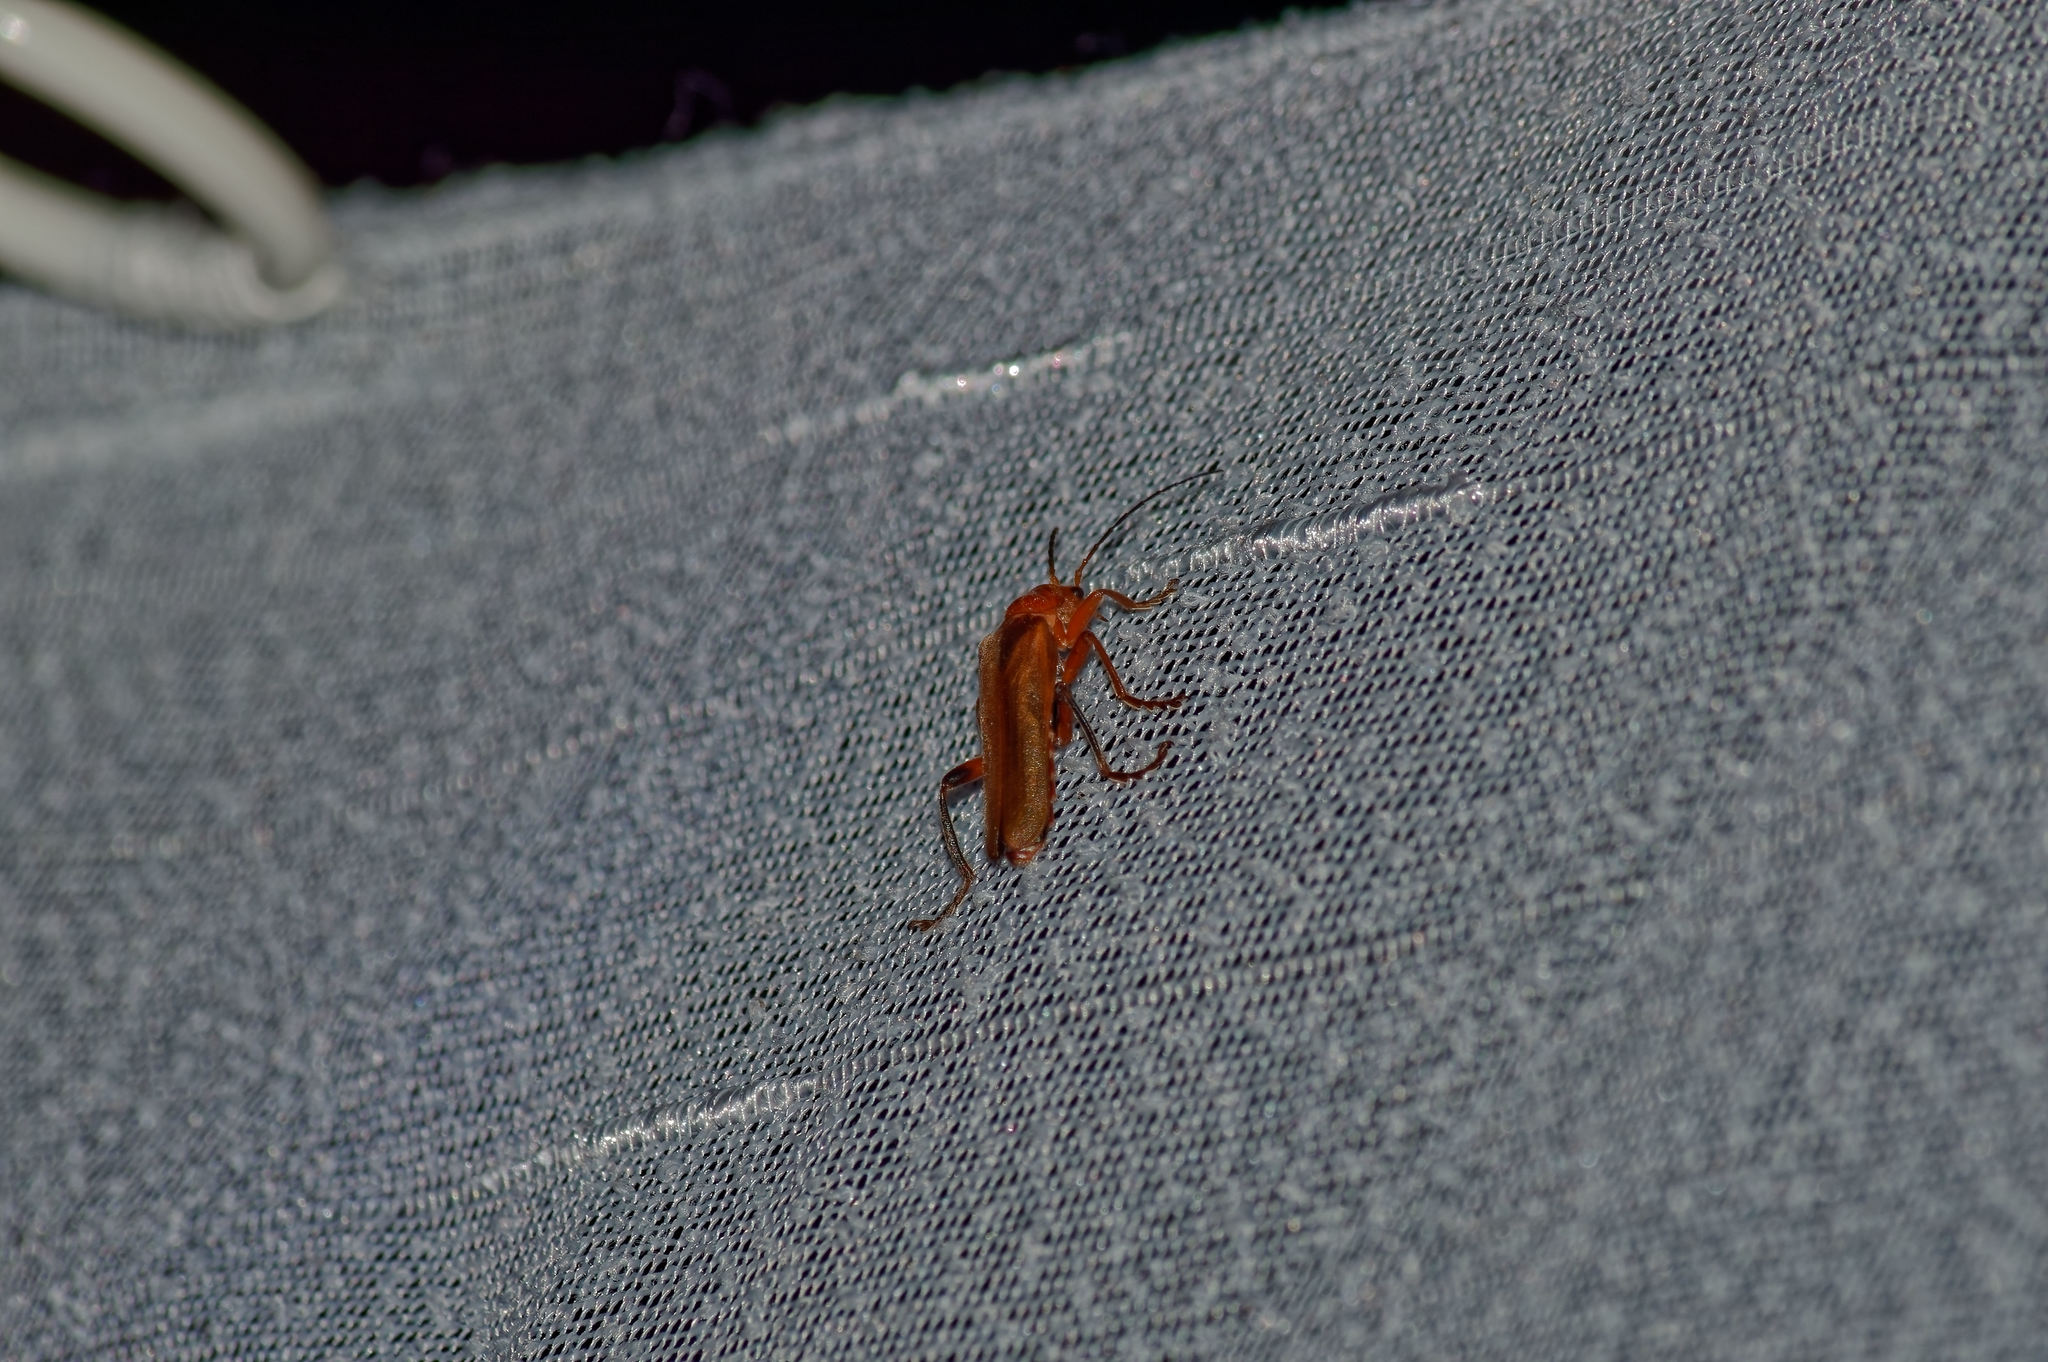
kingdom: Animalia
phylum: Arthropoda
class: Insecta
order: Coleoptera
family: Cantharidae
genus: Cantharis
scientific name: Cantharis livida
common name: Livid soldier beetle
